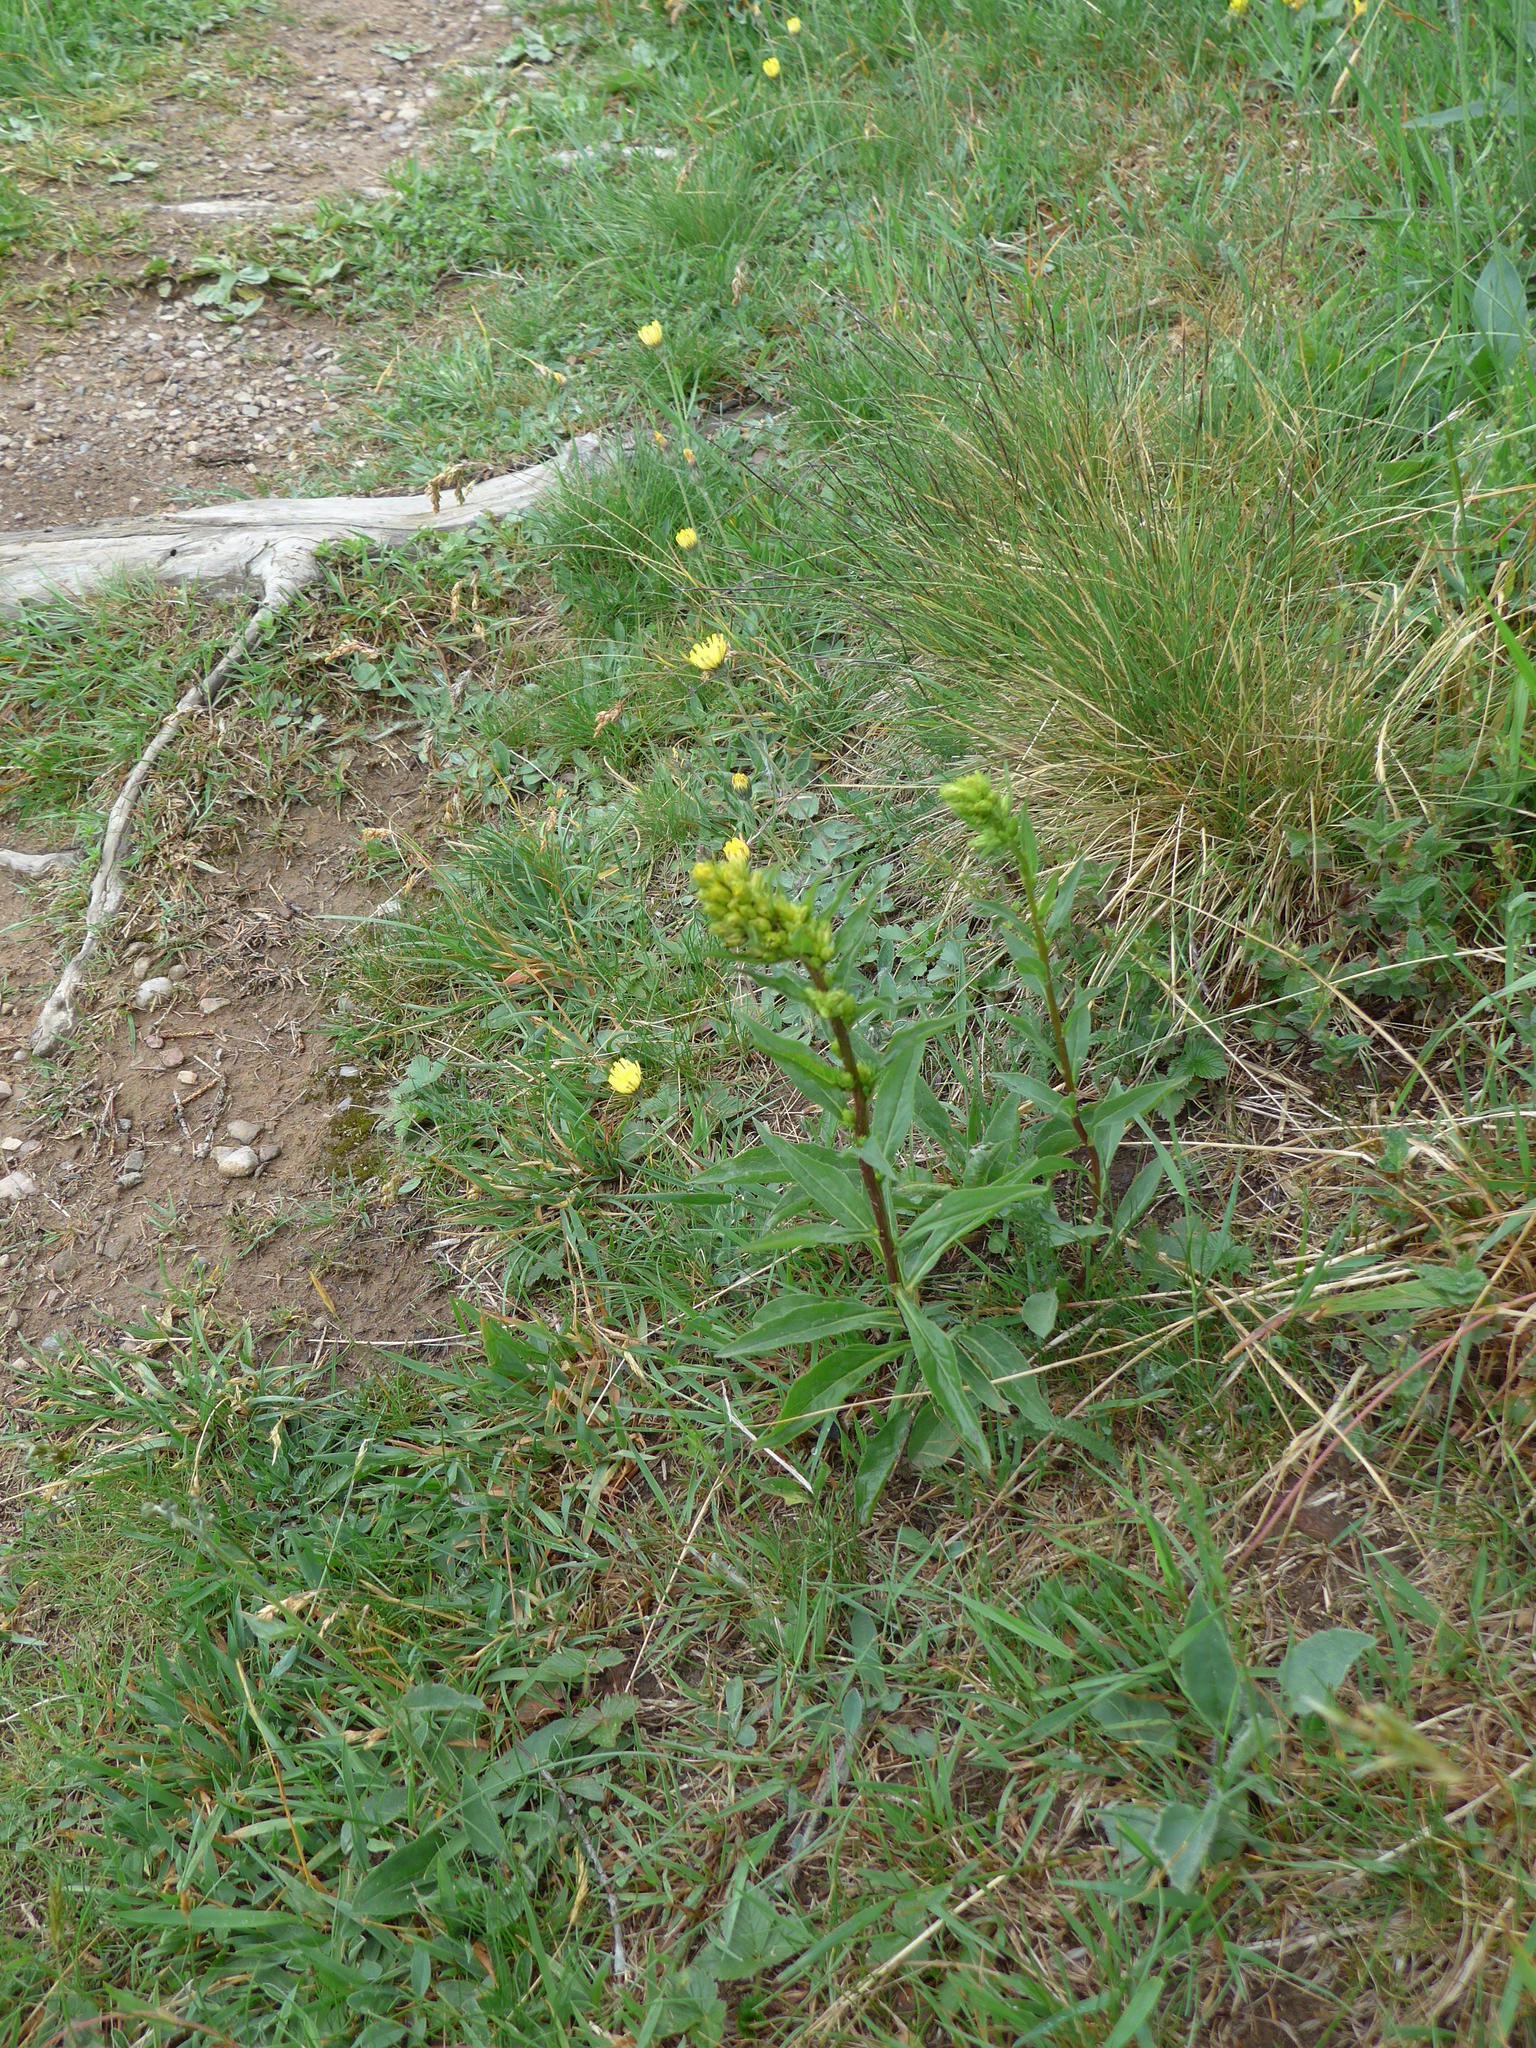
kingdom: Plantae
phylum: Tracheophyta
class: Magnoliopsida
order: Asterales
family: Asteraceae
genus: Solidago
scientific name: Solidago virgaurea
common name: Goldenrod
